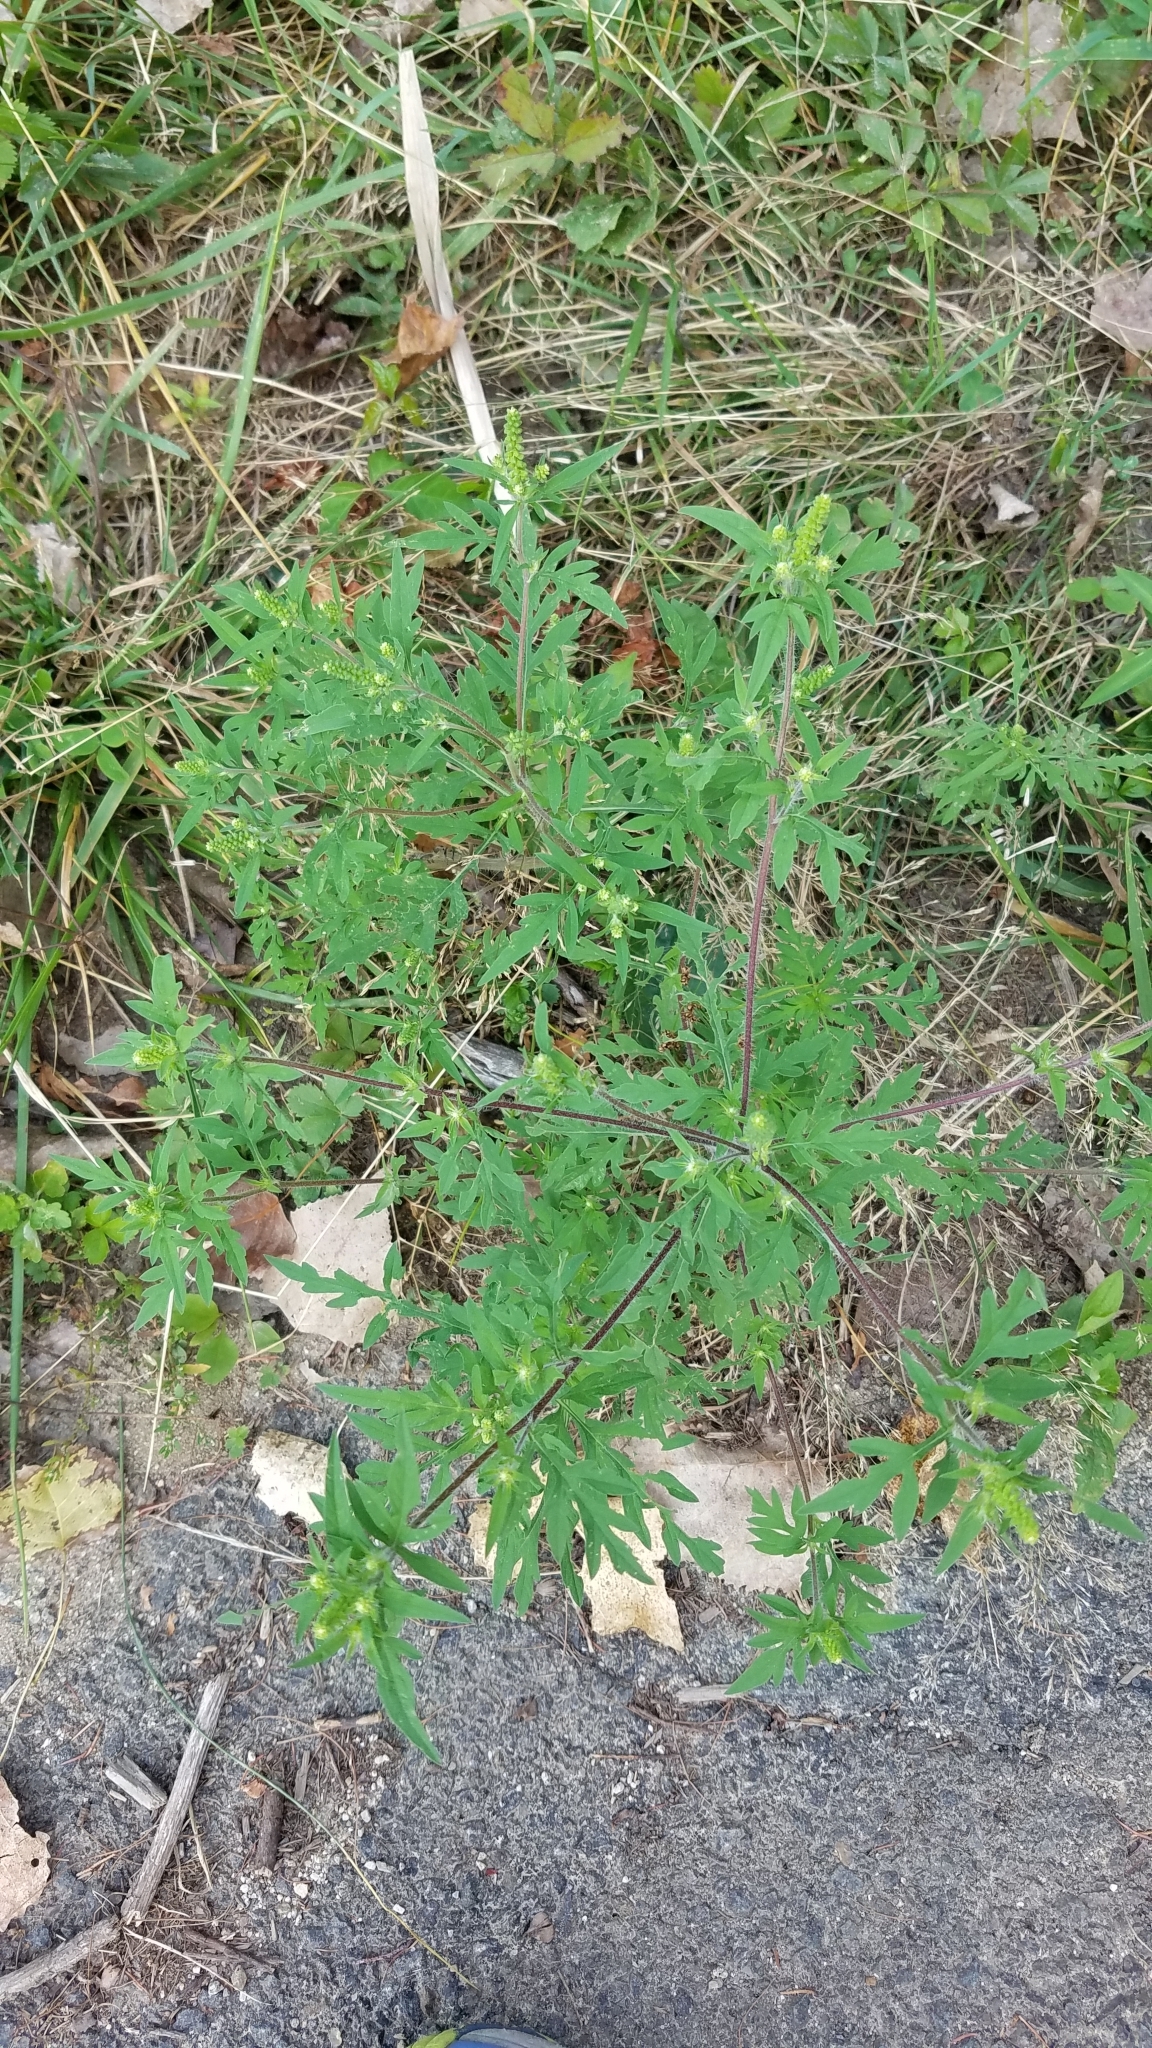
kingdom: Plantae
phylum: Tracheophyta
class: Magnoliopsida
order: Asterales
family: Asteraceae
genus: Ambrosia
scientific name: Ambrosia artemisiifolia
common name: Annual ragweed
